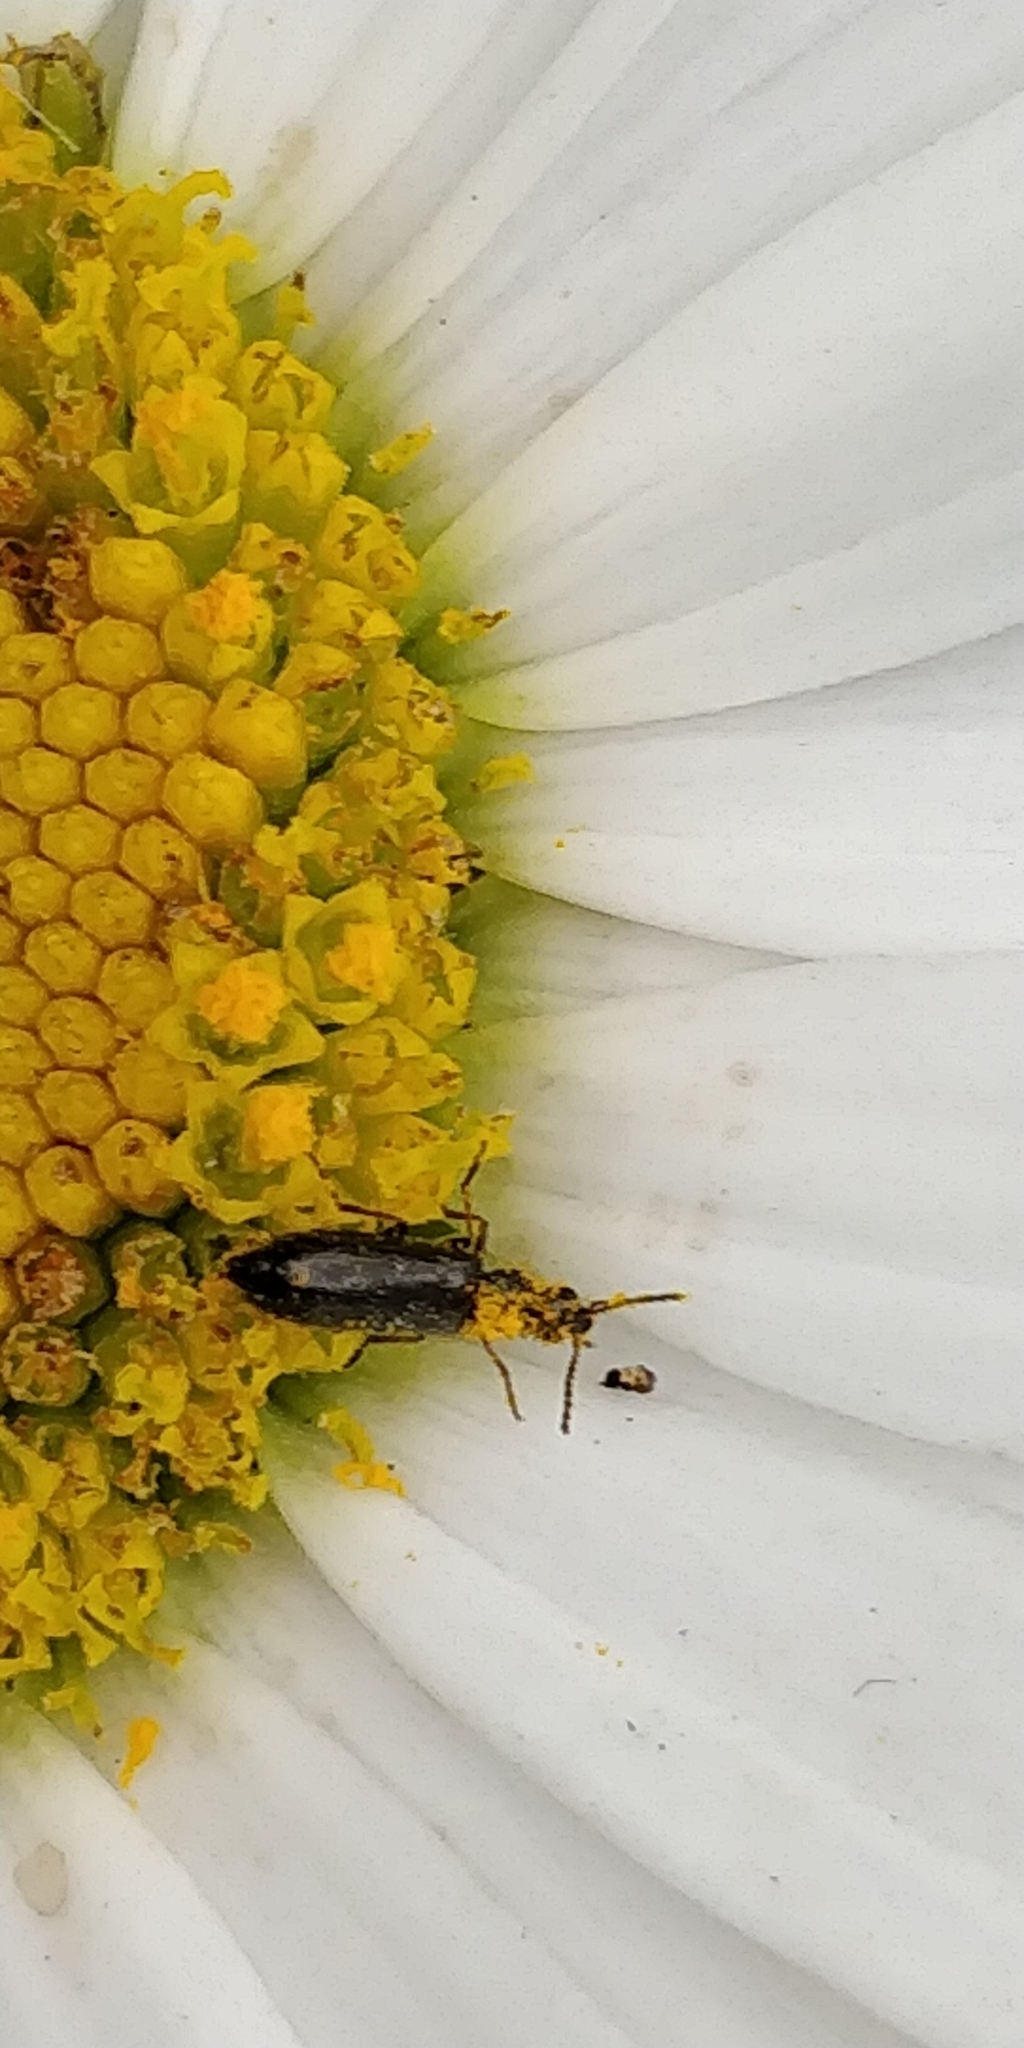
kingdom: Animalia
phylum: Arthropoda
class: Insecta
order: Coleoptera
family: Melyridae
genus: Dasytes
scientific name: Dasytes plumbeus
